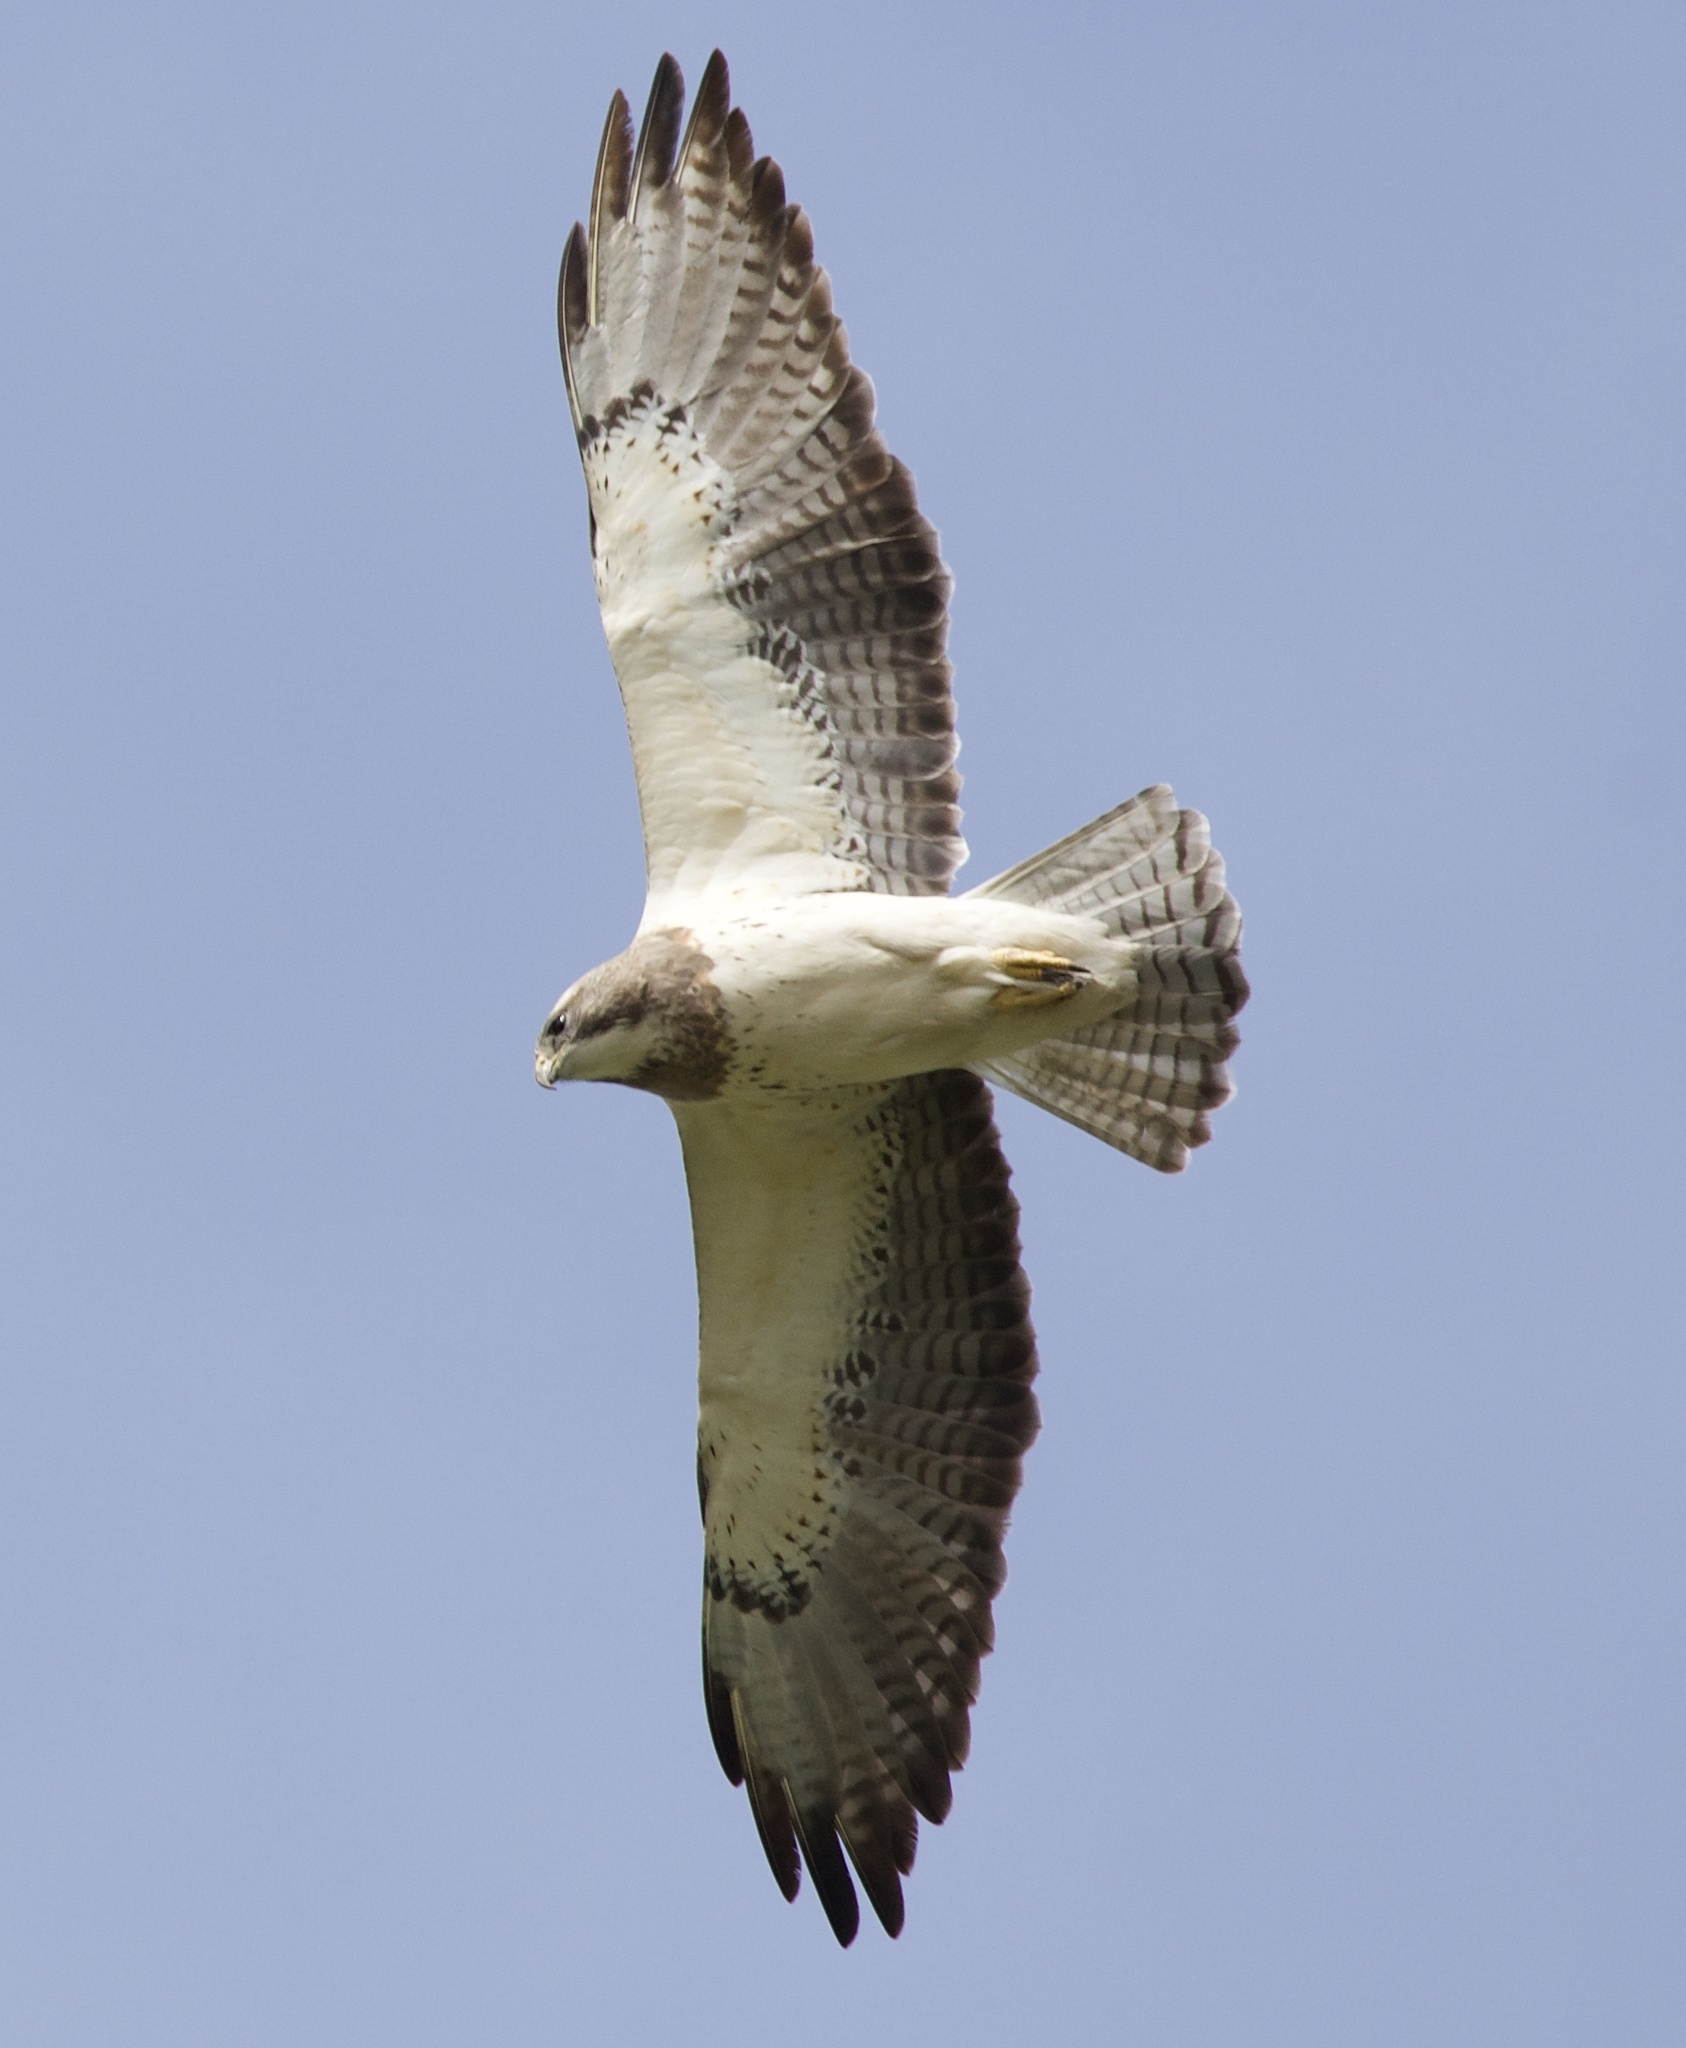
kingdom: Animalia
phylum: Chordata
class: Aves
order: Accipitriformes
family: Accipitridae
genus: Buteo
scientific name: Buteo swainsoni
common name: Swainson's hawk
